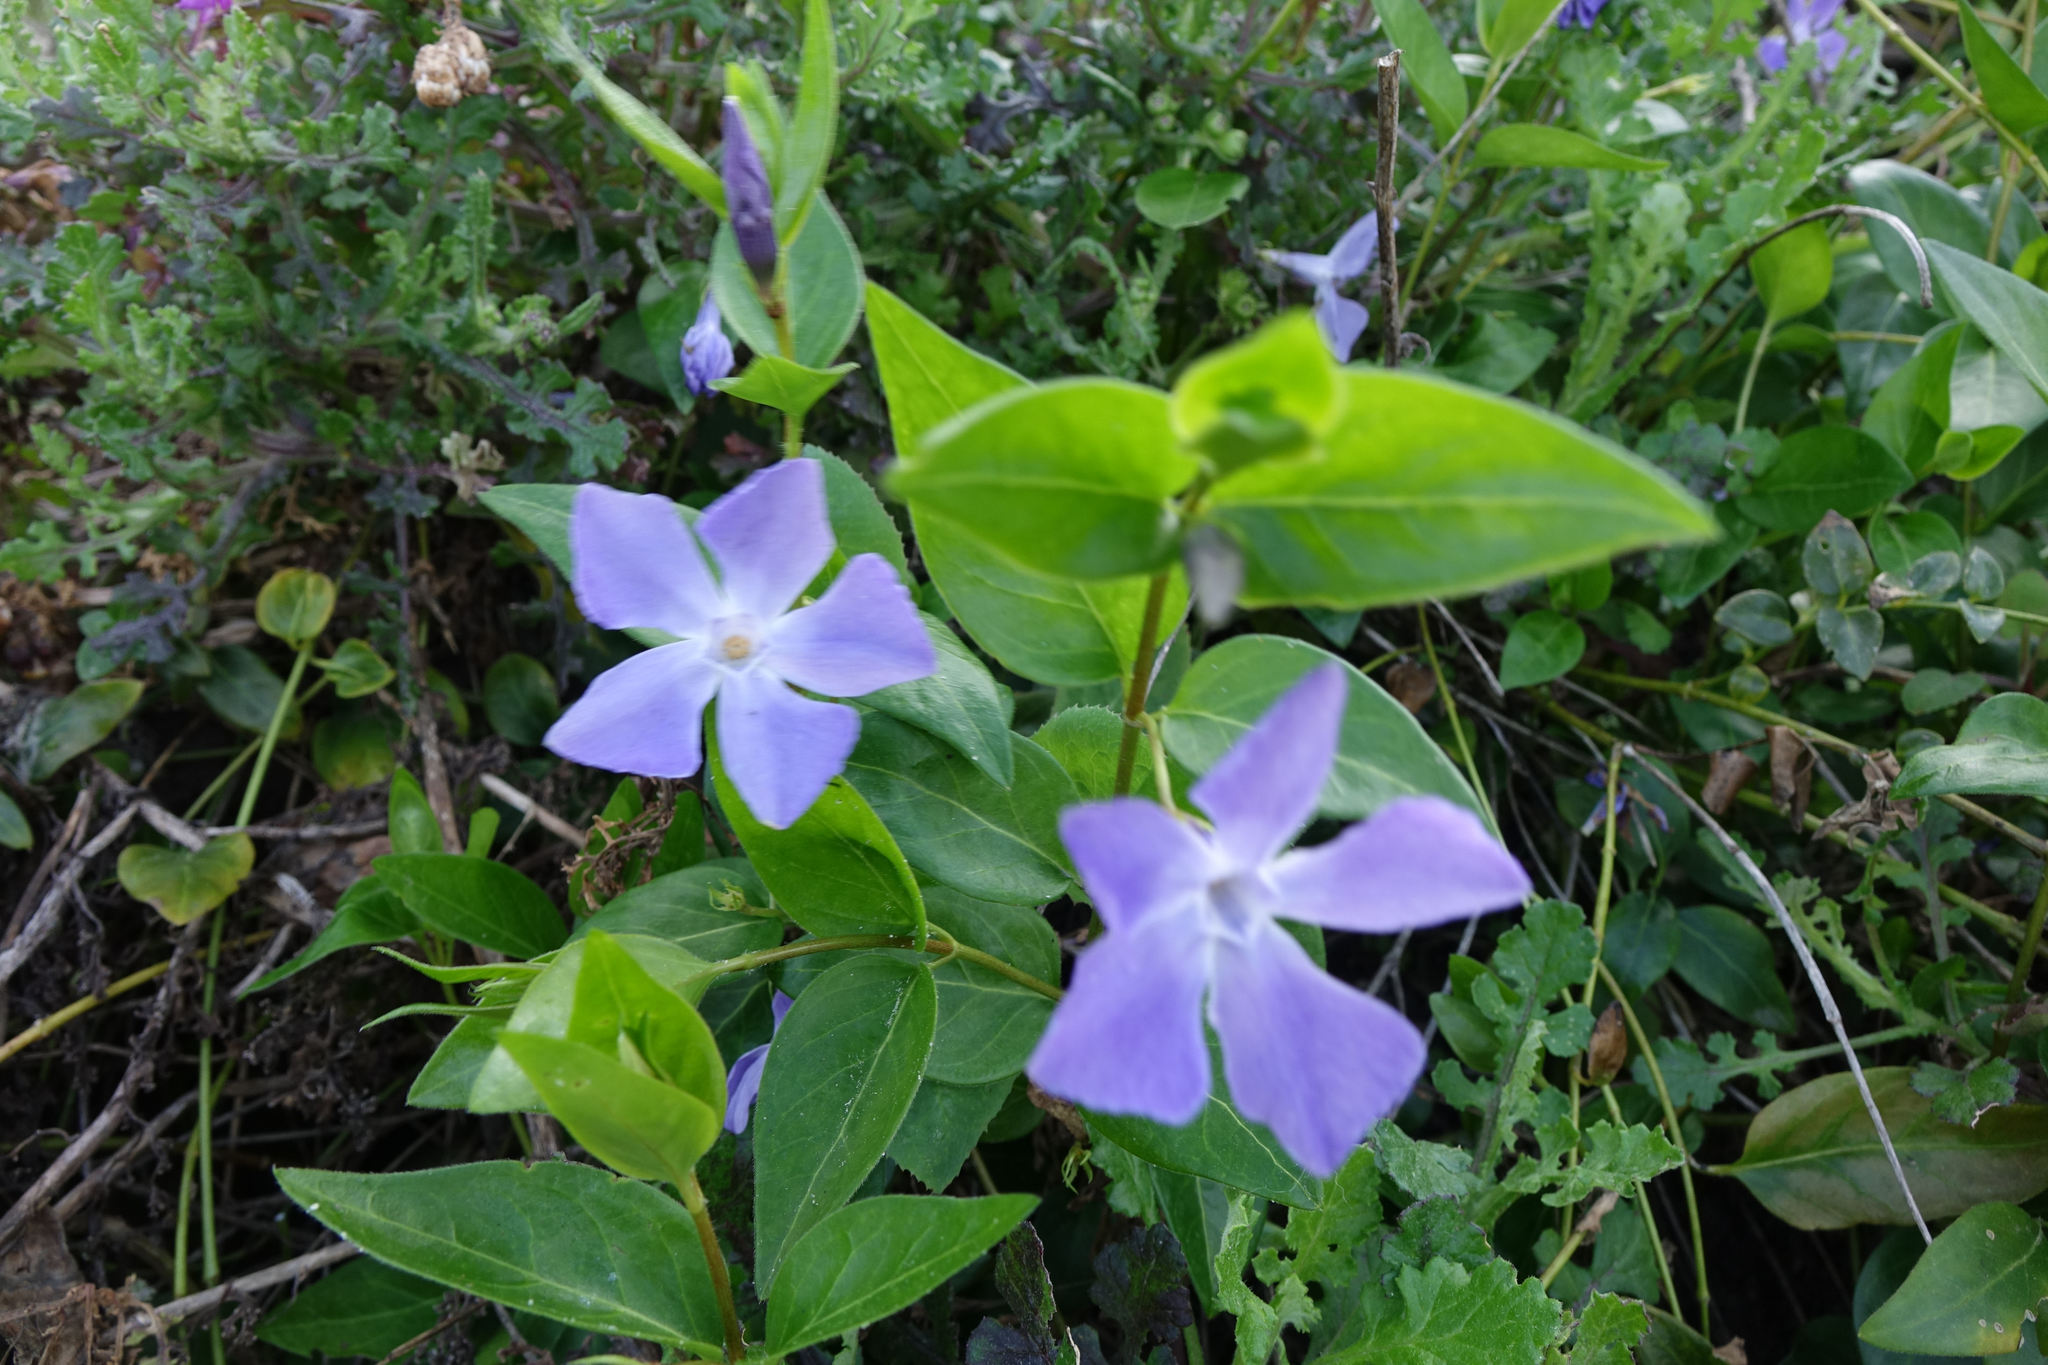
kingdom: Plantae
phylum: Tracheophyta
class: Magnoliopsida
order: Gentianales
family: Apocynaceae
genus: Vinca
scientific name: Vinca major
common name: Greater periwinkle
